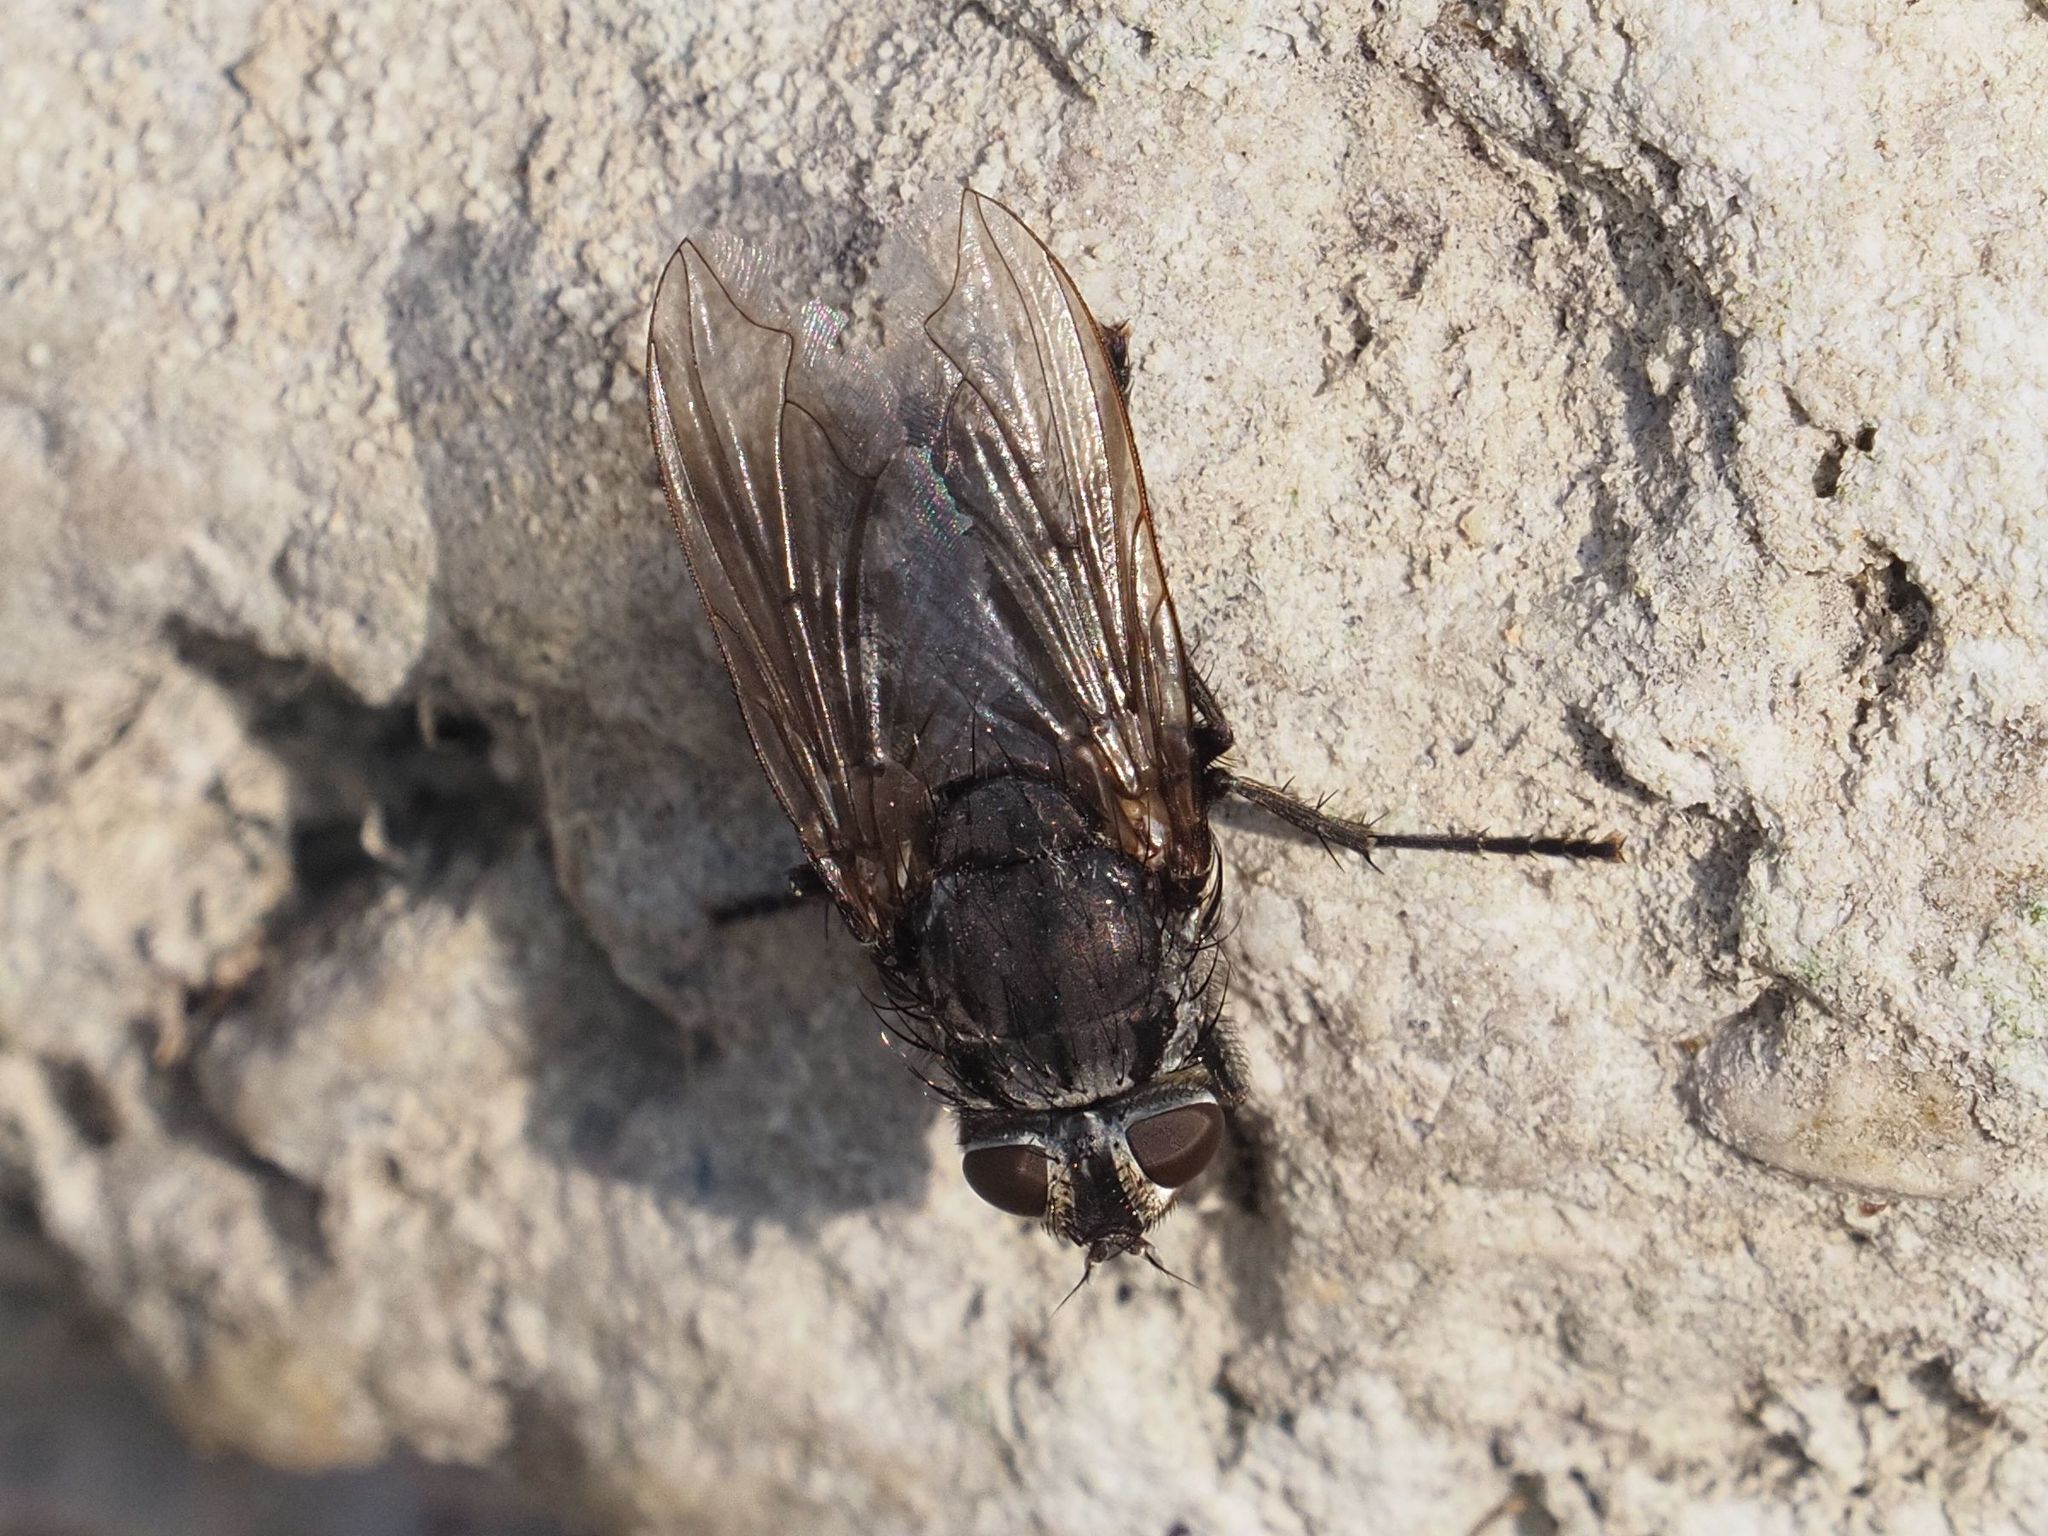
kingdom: Animalia
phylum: Arthropoda
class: Insecta
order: Diptera
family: Polleniidae
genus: Pollenia
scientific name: Pollenia vagabunda
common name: Vagabund cluster fly
